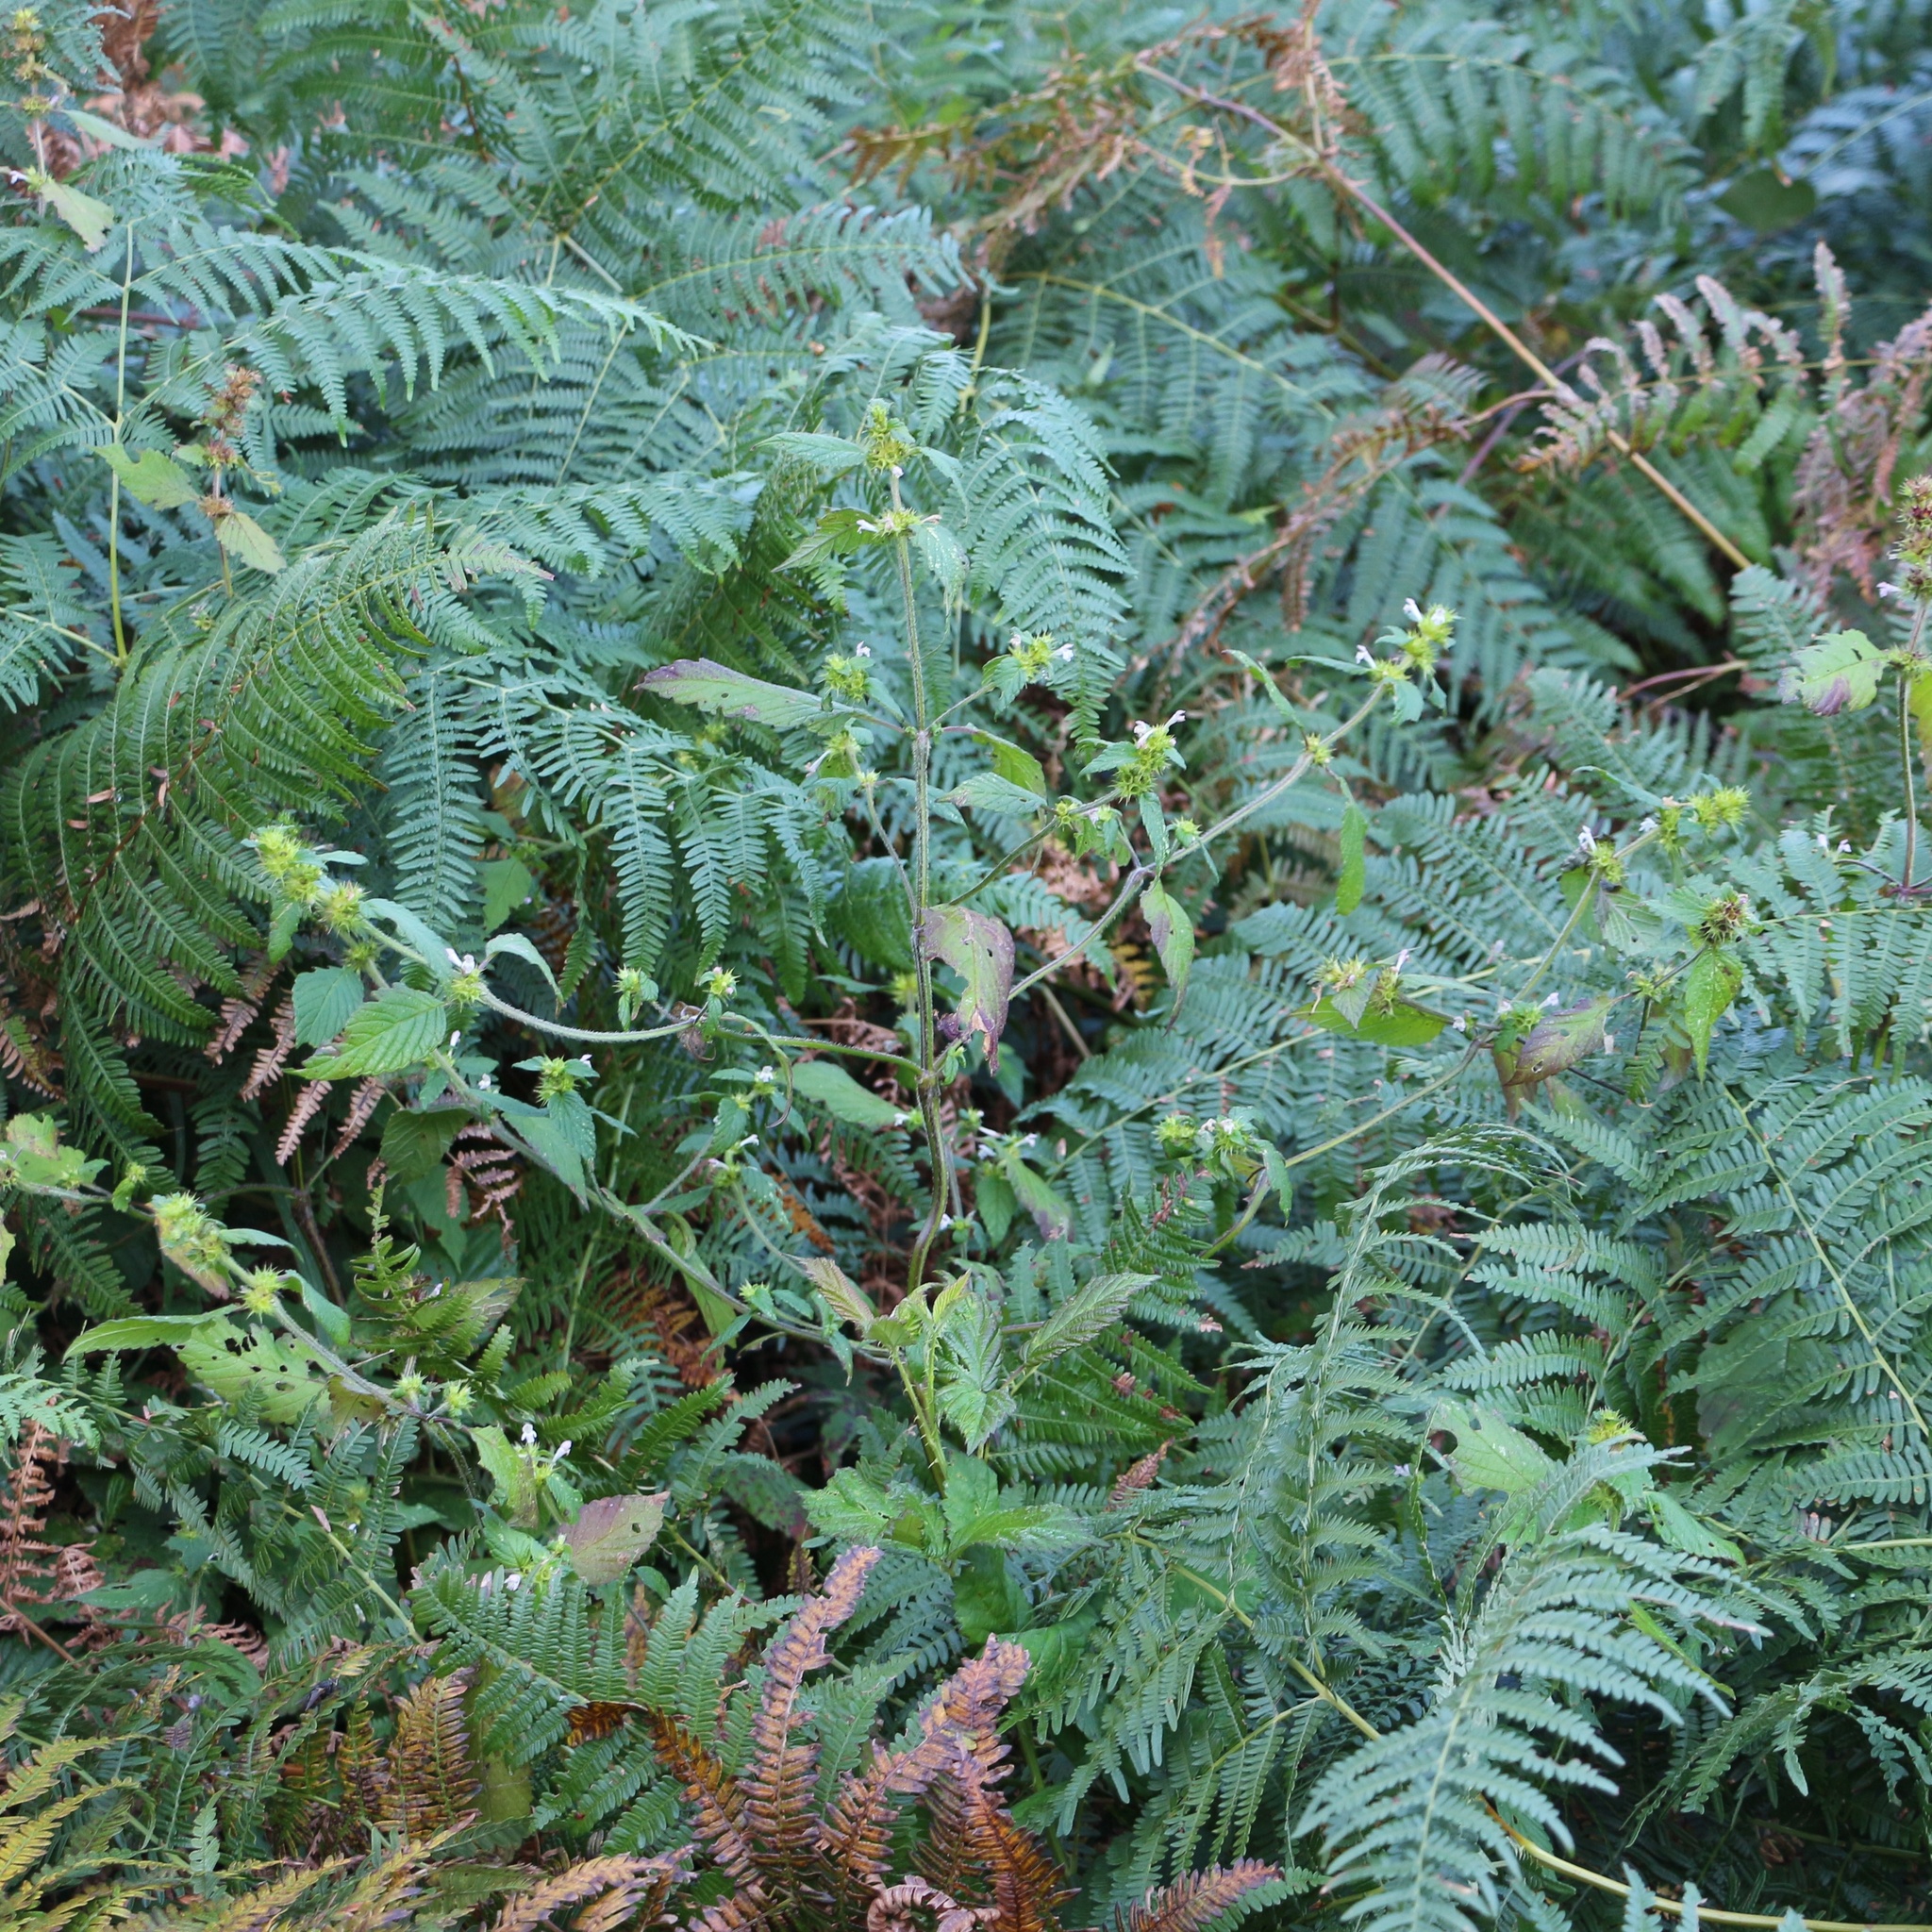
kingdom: Plantae
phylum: Tracheophyta
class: Magnoliopsida
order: Lamiales
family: Lamiaceae
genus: Galeopsis
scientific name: Galeopsis bifida
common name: Bifid hemp-nettle
